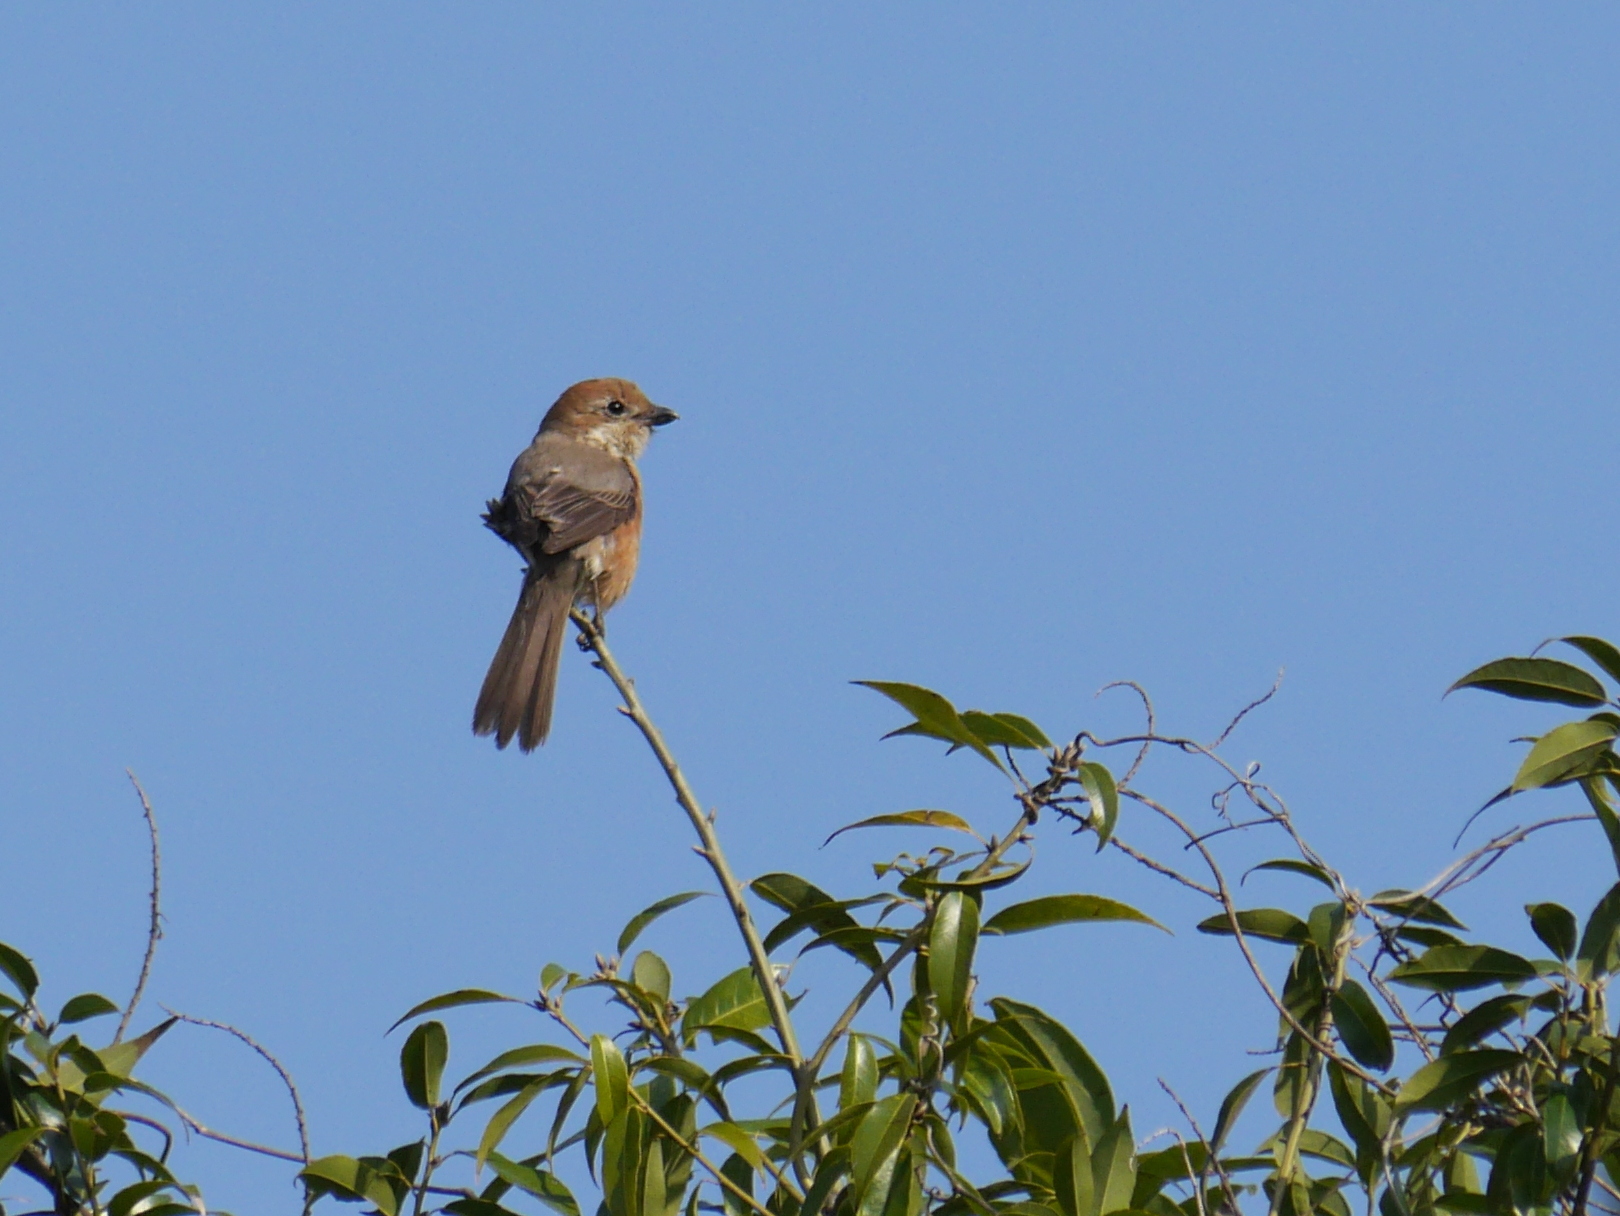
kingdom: Animalia
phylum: Chordata
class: Aves
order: Passeriformes
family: Laniidae
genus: Lanius
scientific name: Lanius bucephalus
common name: Bull-headed shrike
